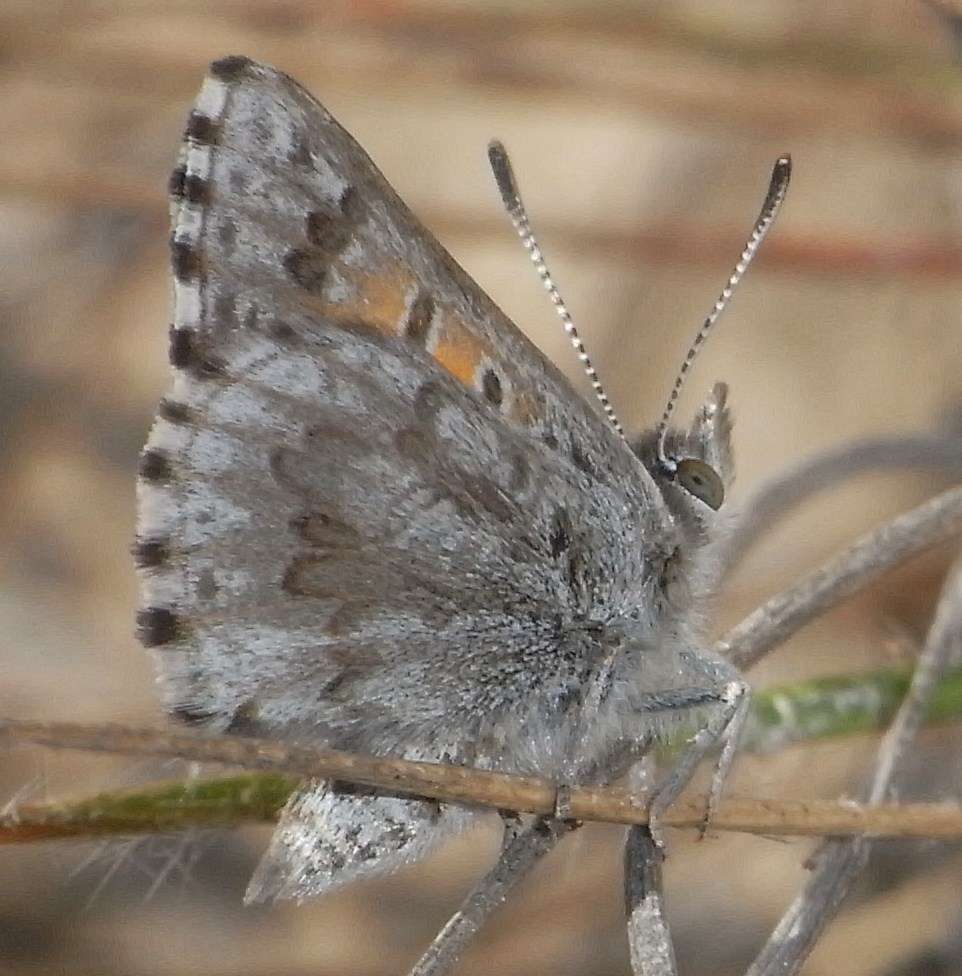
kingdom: Animalia
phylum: Arthropoda
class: Insecta
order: Lepidoptera
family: Lycaenidae
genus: Lucia
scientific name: Lucia limbaria
